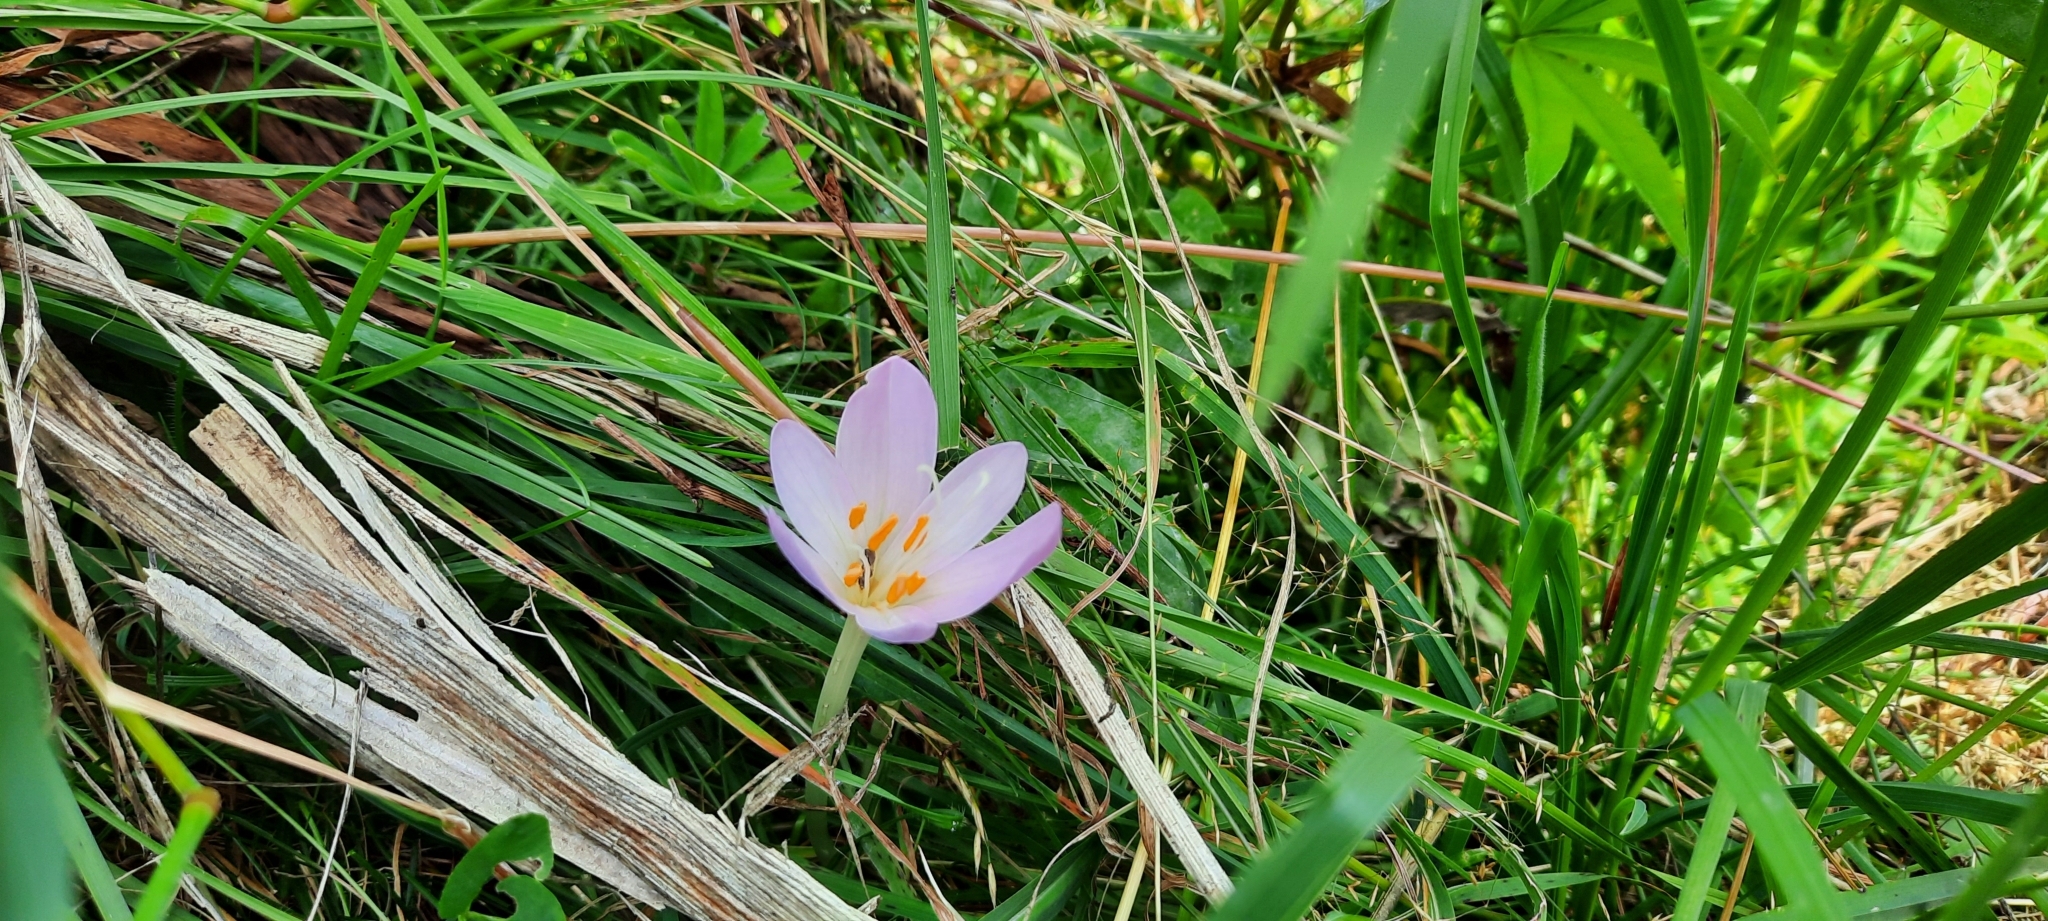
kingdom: Plantae
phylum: Tracheophyta
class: Liliopsida
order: Liliales
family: Colchicaceae
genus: Colchicum
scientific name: Colchicum autumnale
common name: Autumn crocus
